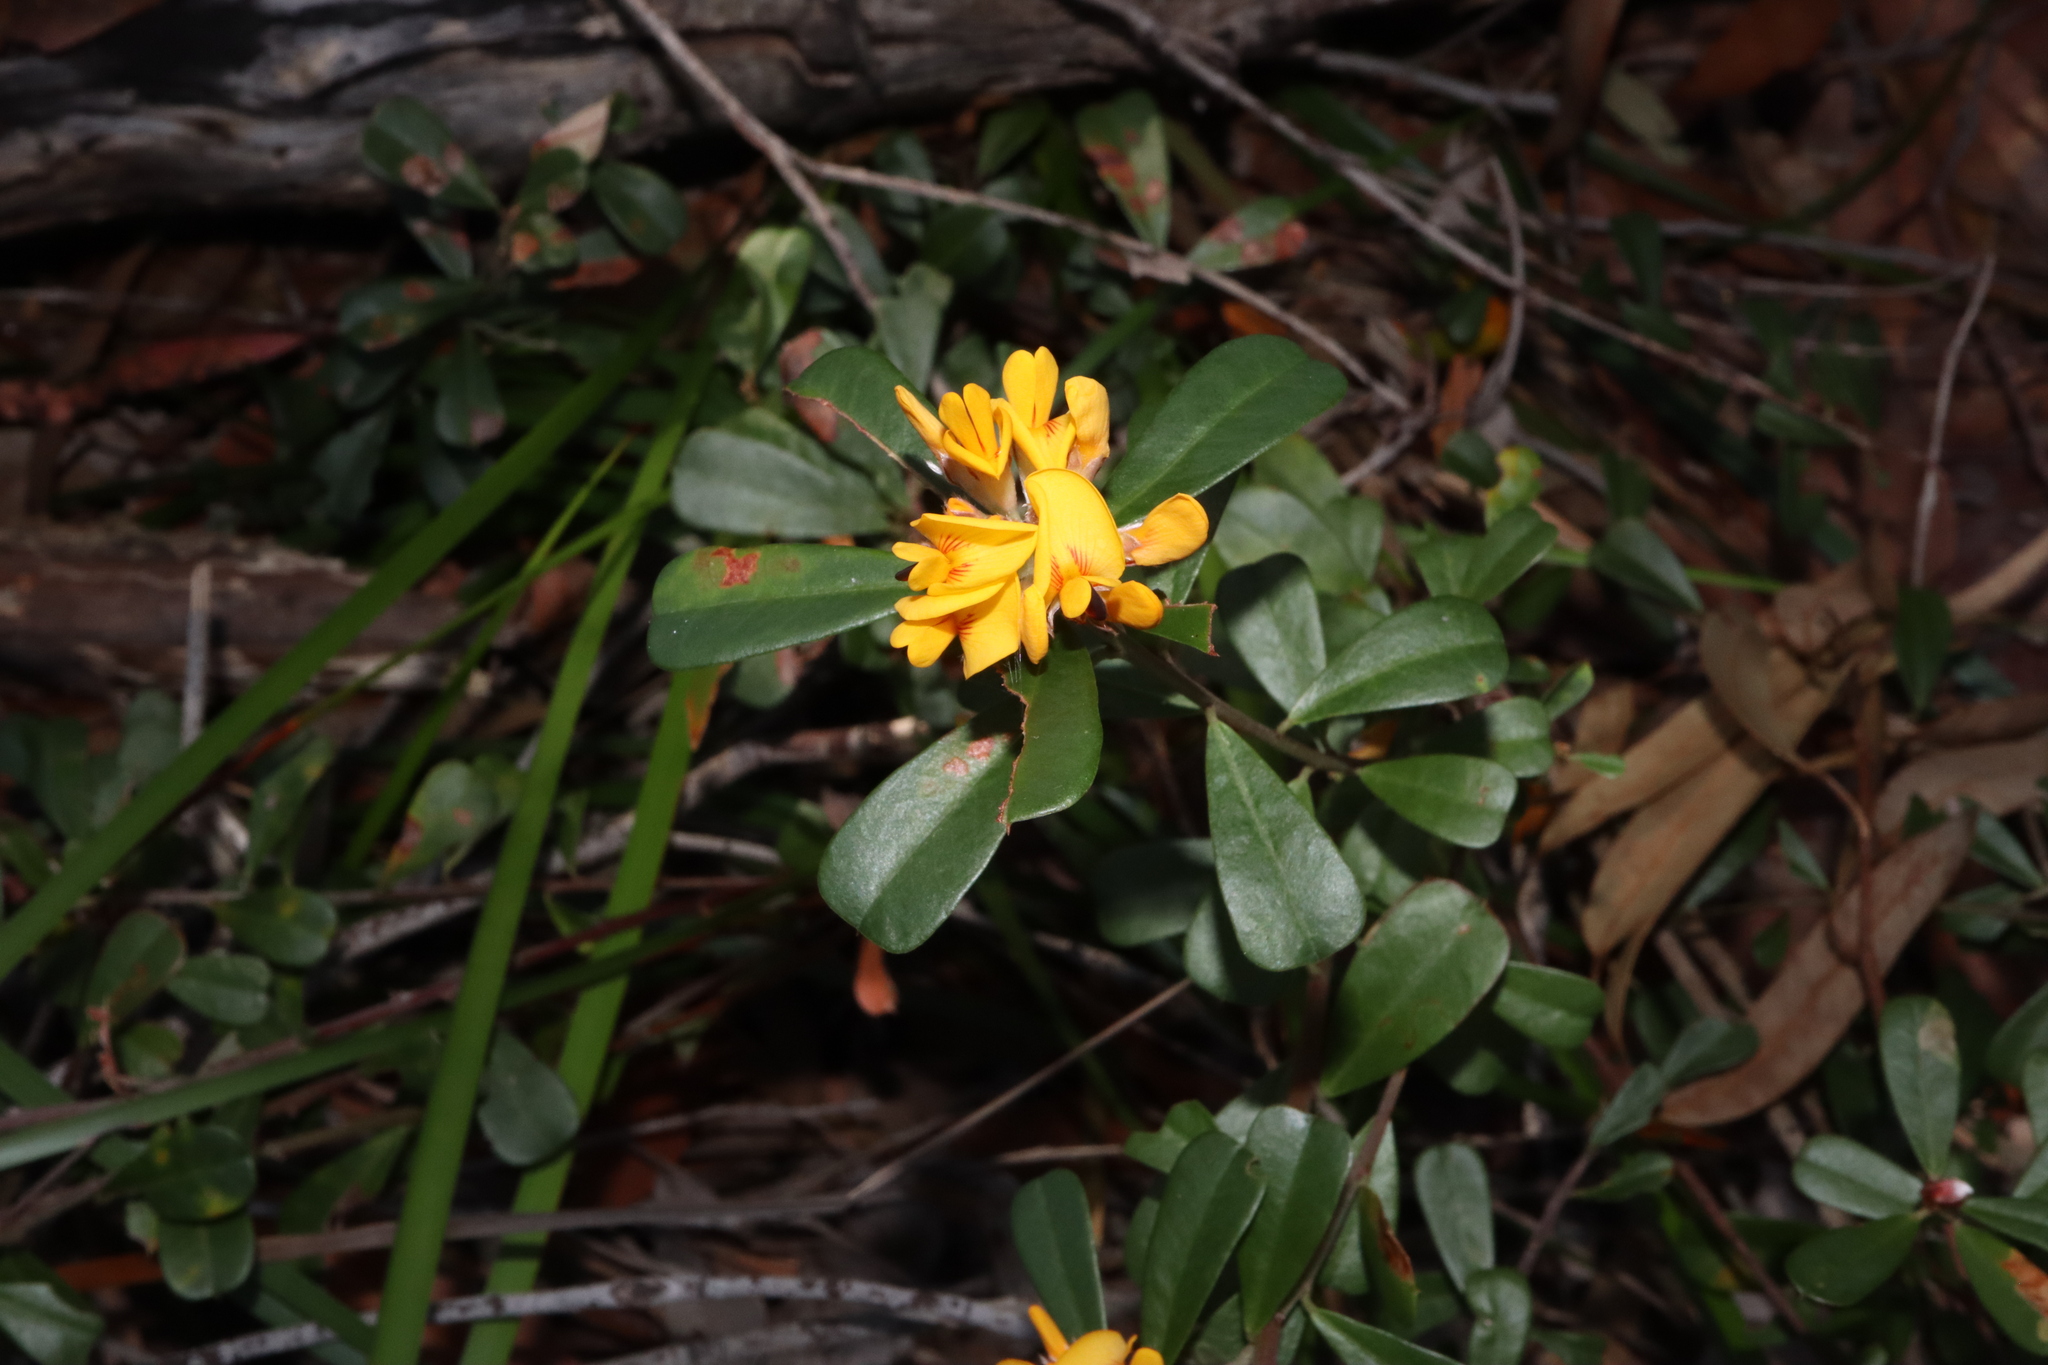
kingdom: Plantae
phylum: Tracheophyta
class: Magnoliopsida
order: Fabales
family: Fabaceae
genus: Pultenaea
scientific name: Pultenaea daphnoides
